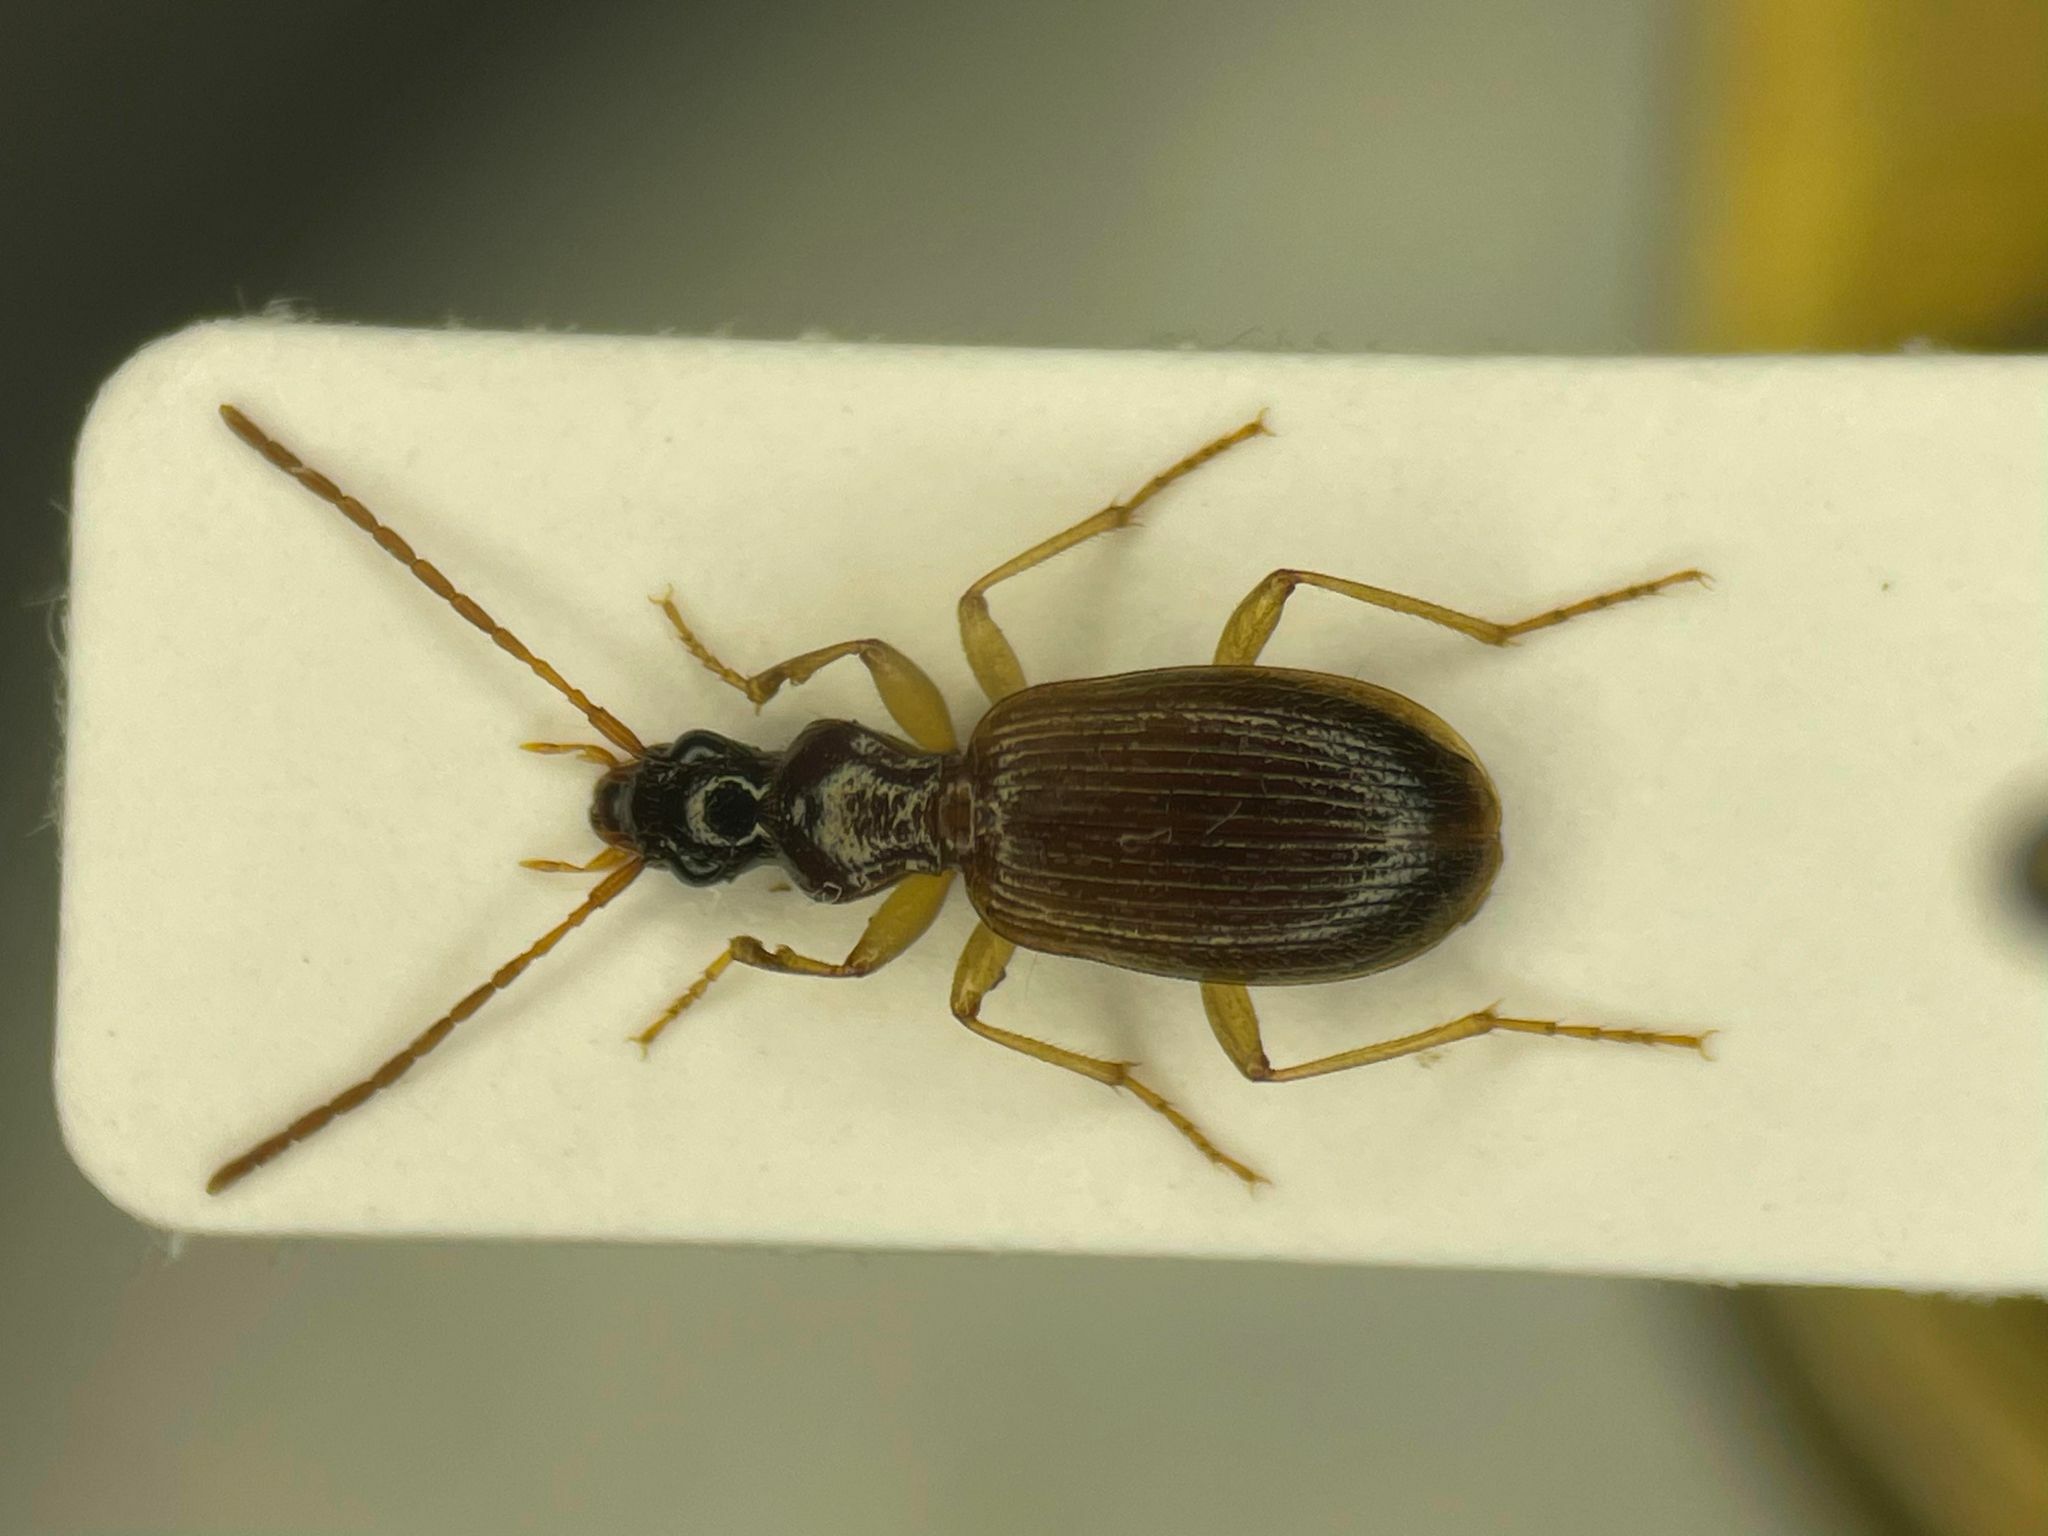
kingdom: Animalia
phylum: Arthropoda
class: Insecta
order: Coleoptera
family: Carabidae
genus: Oxypselaphus
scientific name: Oxypselaphus pusillus
